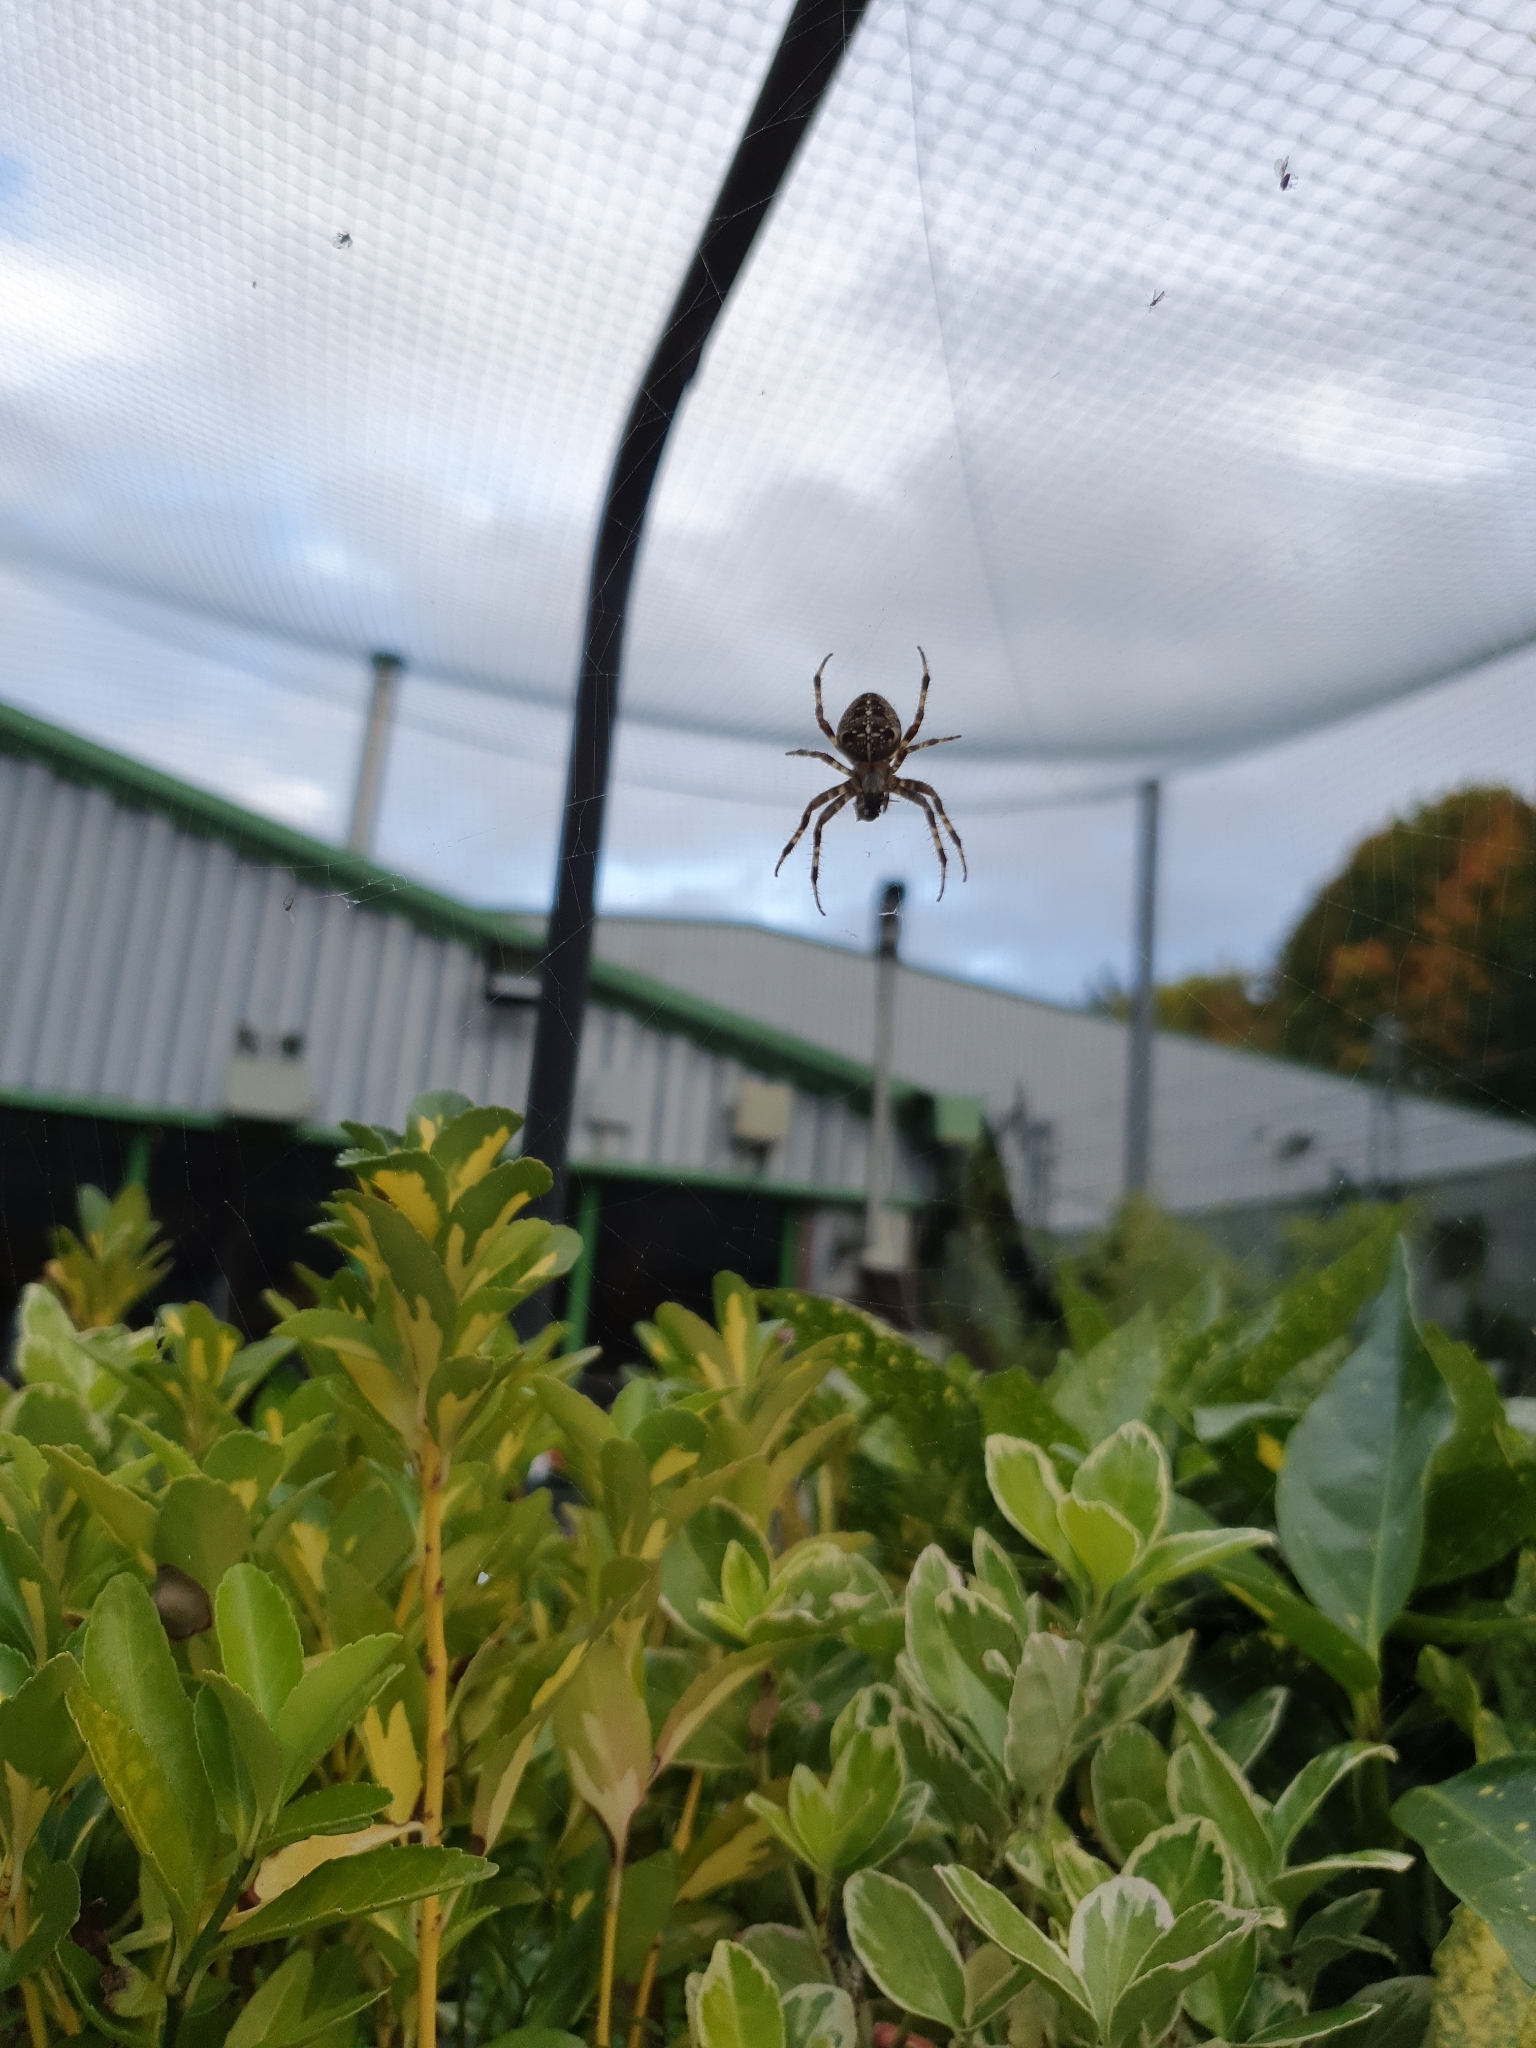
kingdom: Animalia
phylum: Arthropoda
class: Arachnida
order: Araneae
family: Araneidae
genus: Araneus
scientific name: Araneus diadematus
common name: Cross orbweaver
